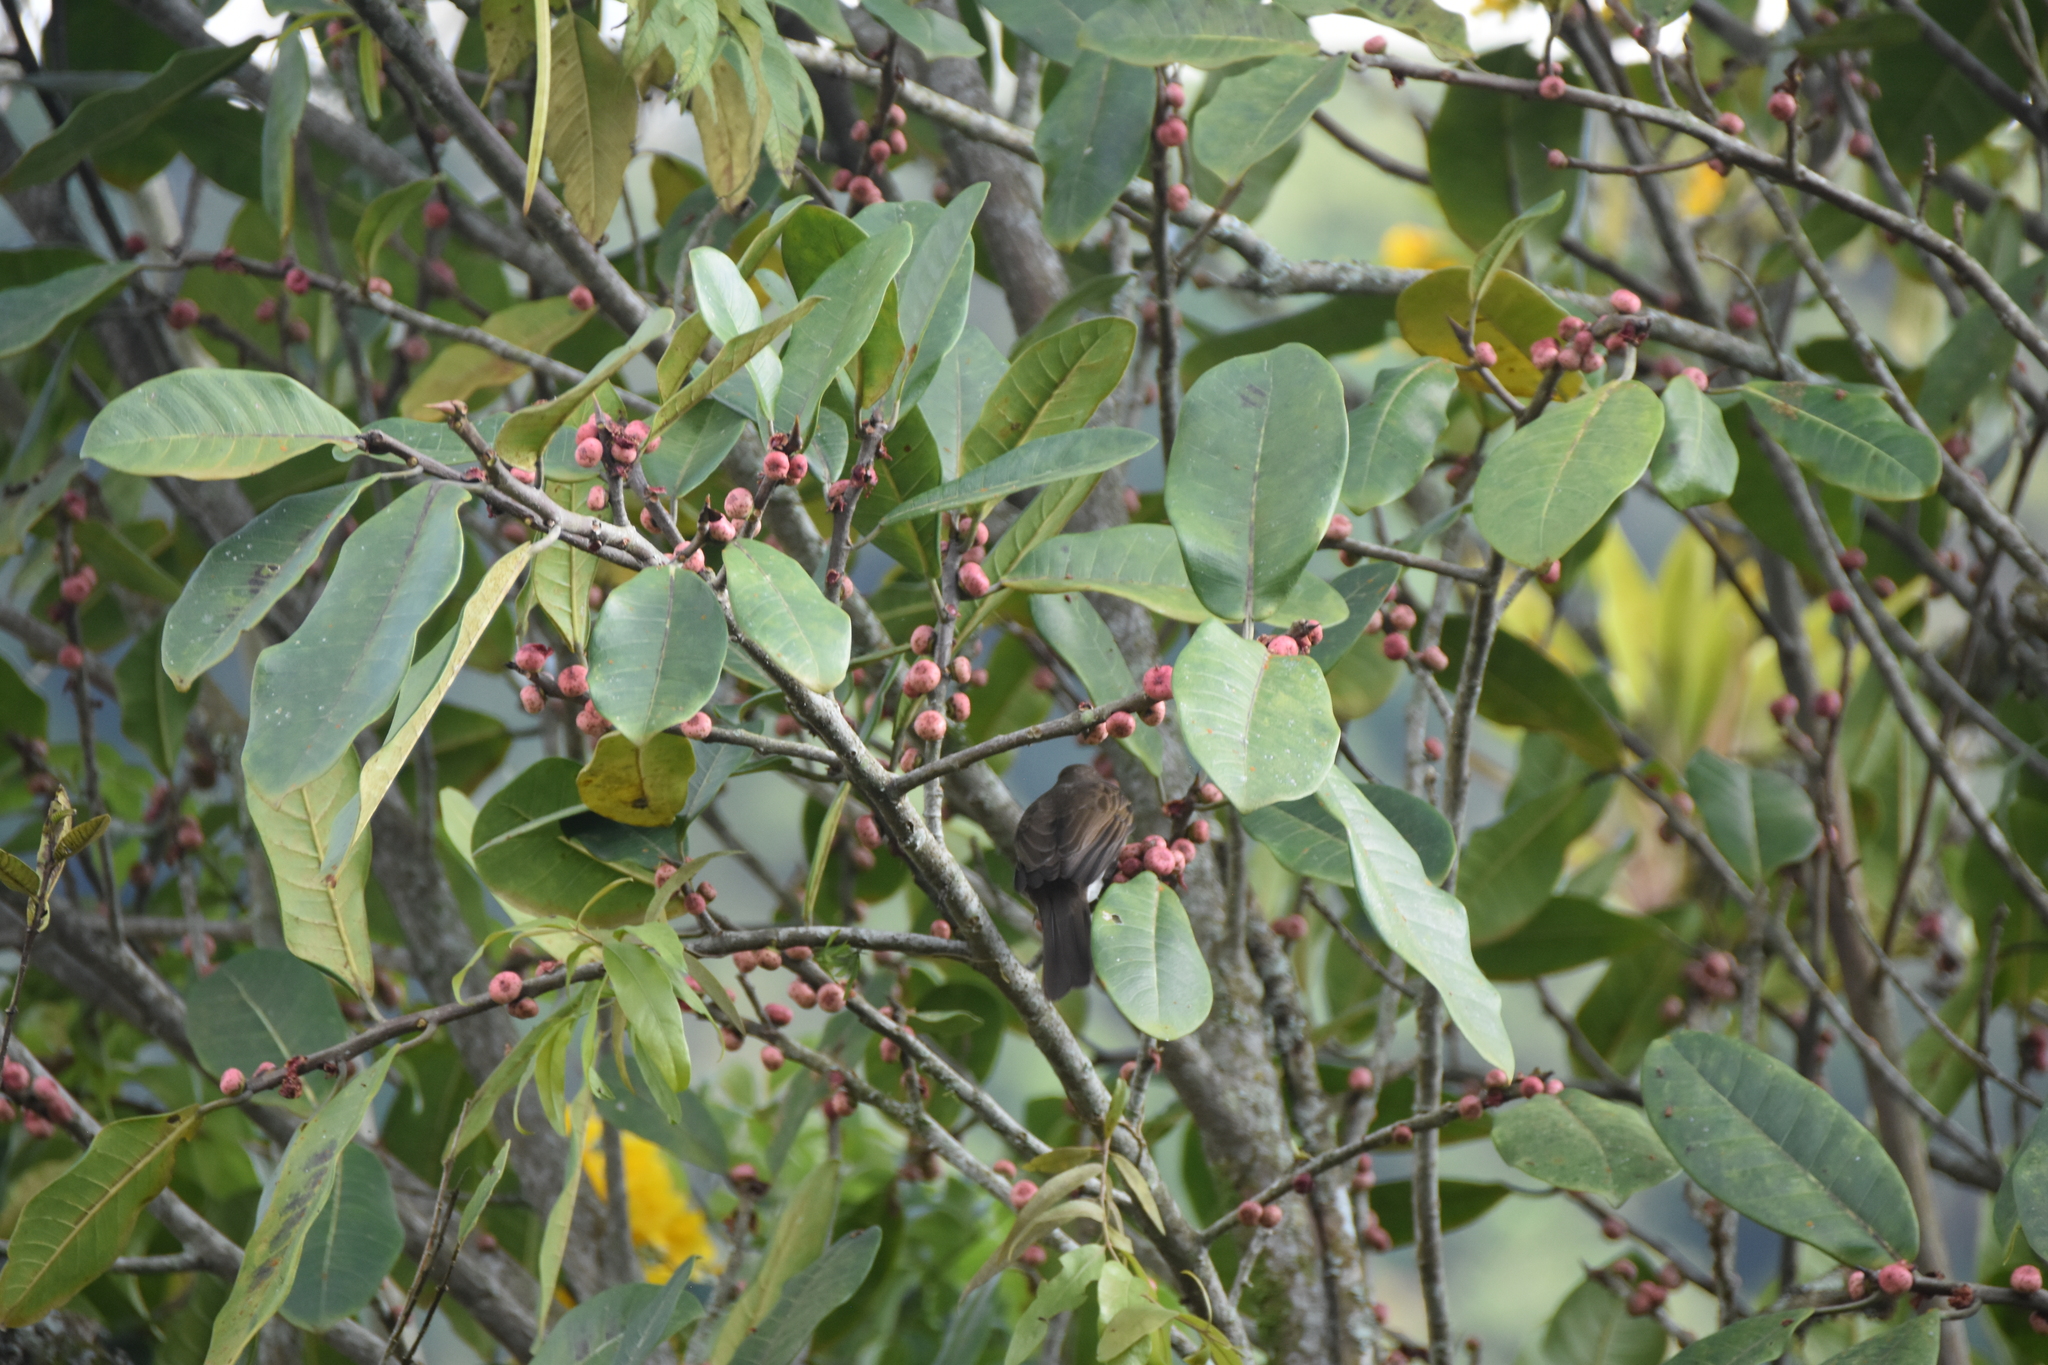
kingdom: Animalia
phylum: Chordata
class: Aves
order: Passeriformes
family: Turdidae
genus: Turdus
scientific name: Turdus ignobilis
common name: Black-billed thrush
